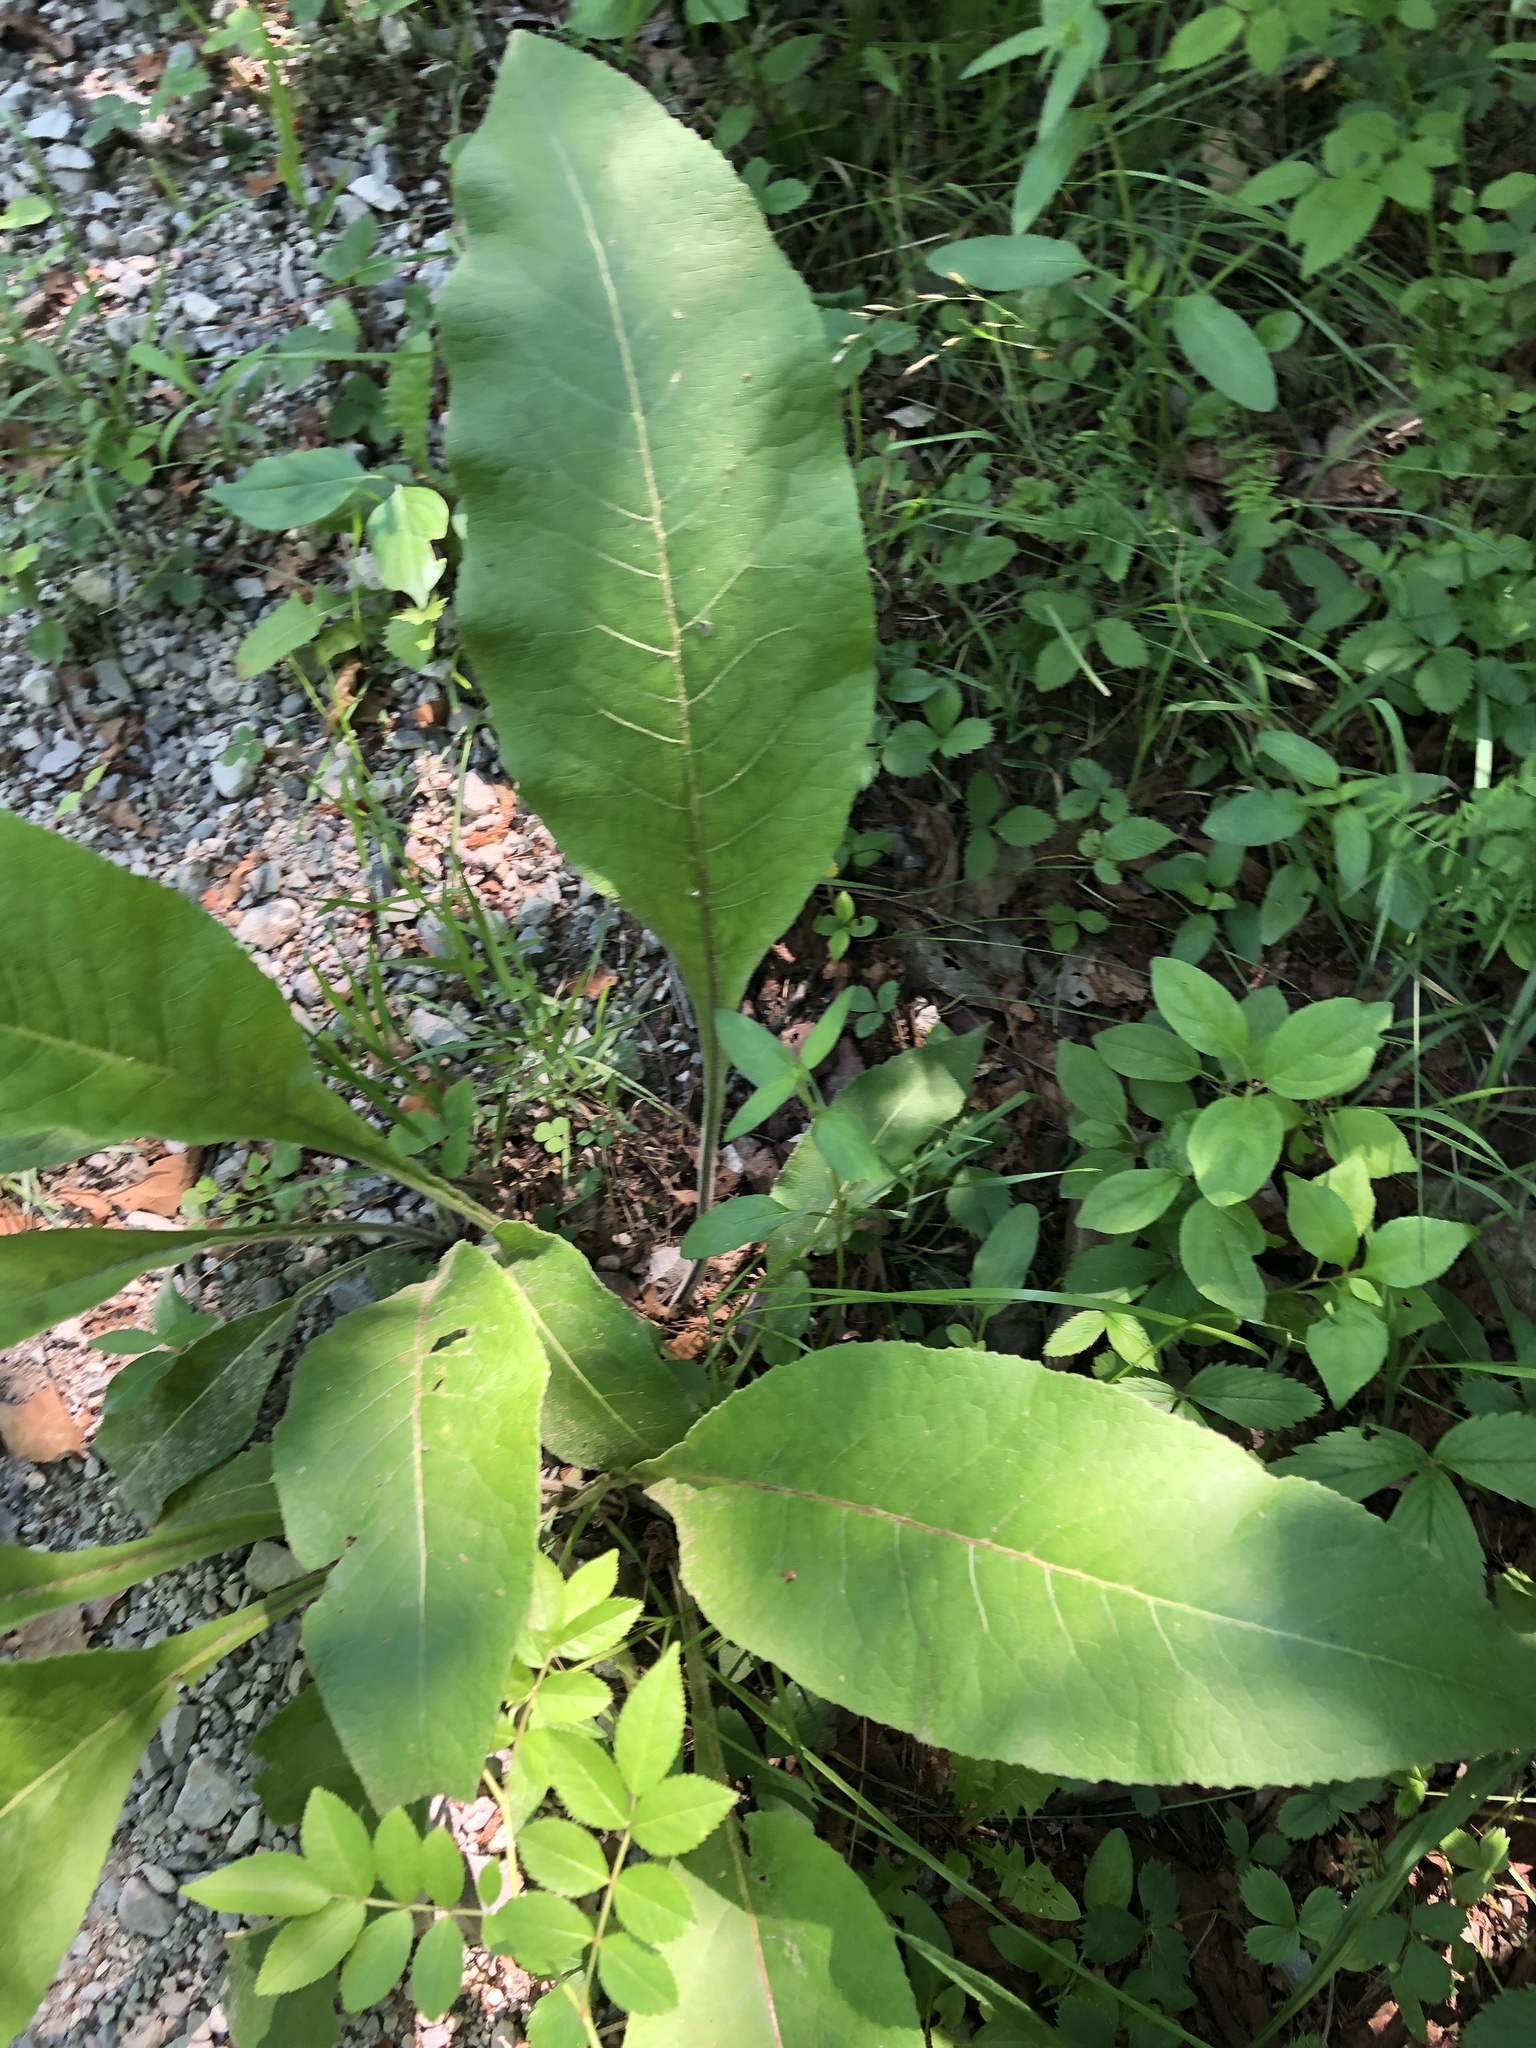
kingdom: Plantae
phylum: Tracheophyta
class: Magnoliopsida
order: Asterales
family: Asteraceae
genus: Inula
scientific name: Inula helenium
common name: Elecampane
